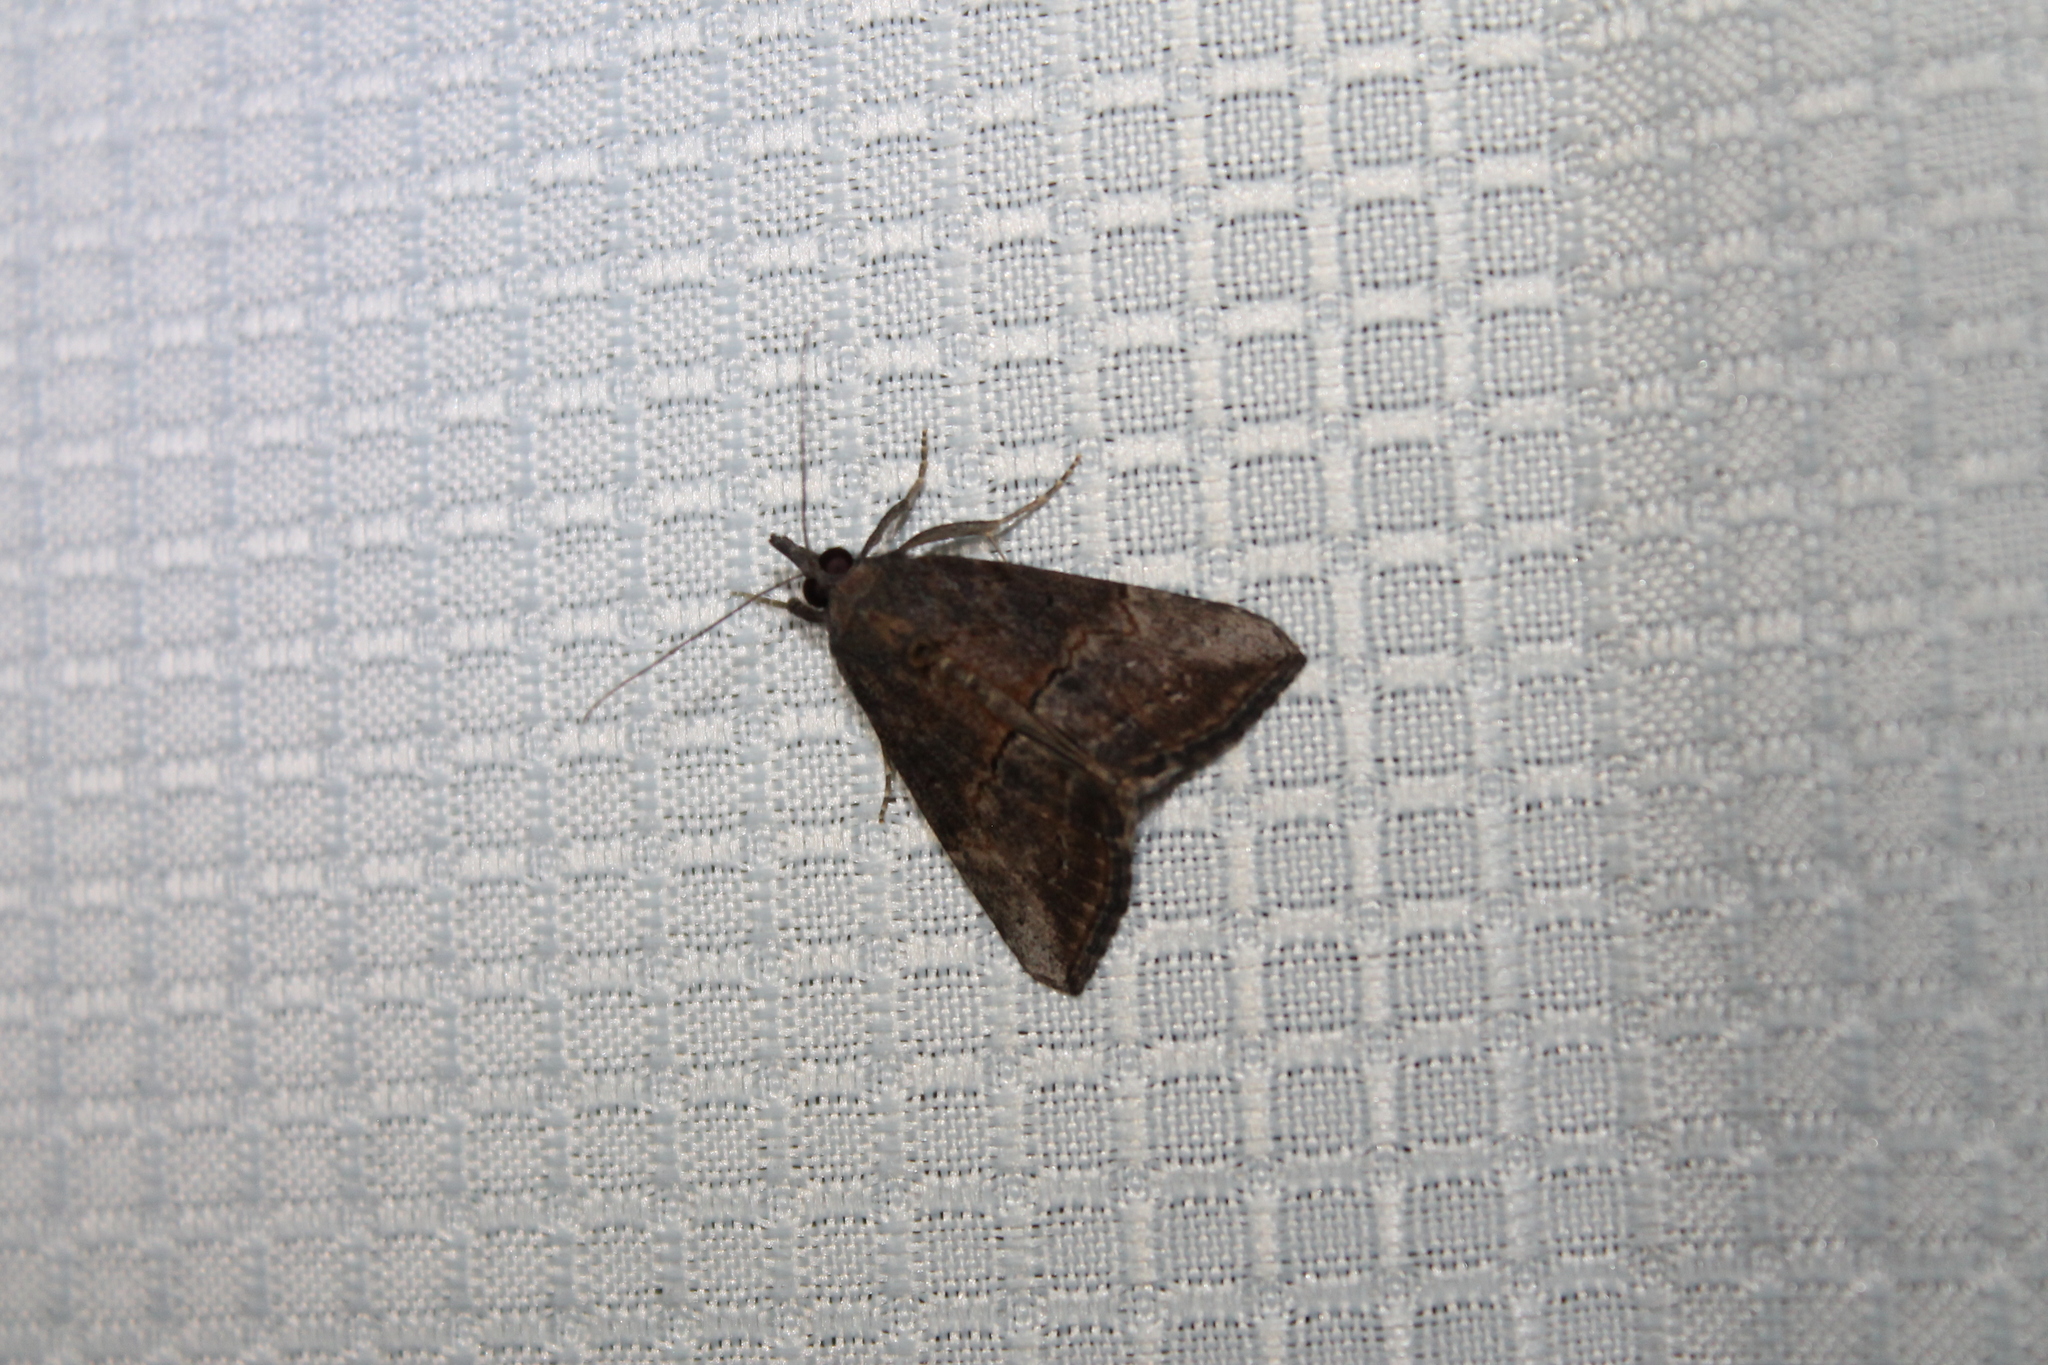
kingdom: Animalia
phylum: Arthropoda
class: Insecta
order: Lepidoptera
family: Erebidae
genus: Hypena
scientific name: Hypena scabra
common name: Green cloverworm
